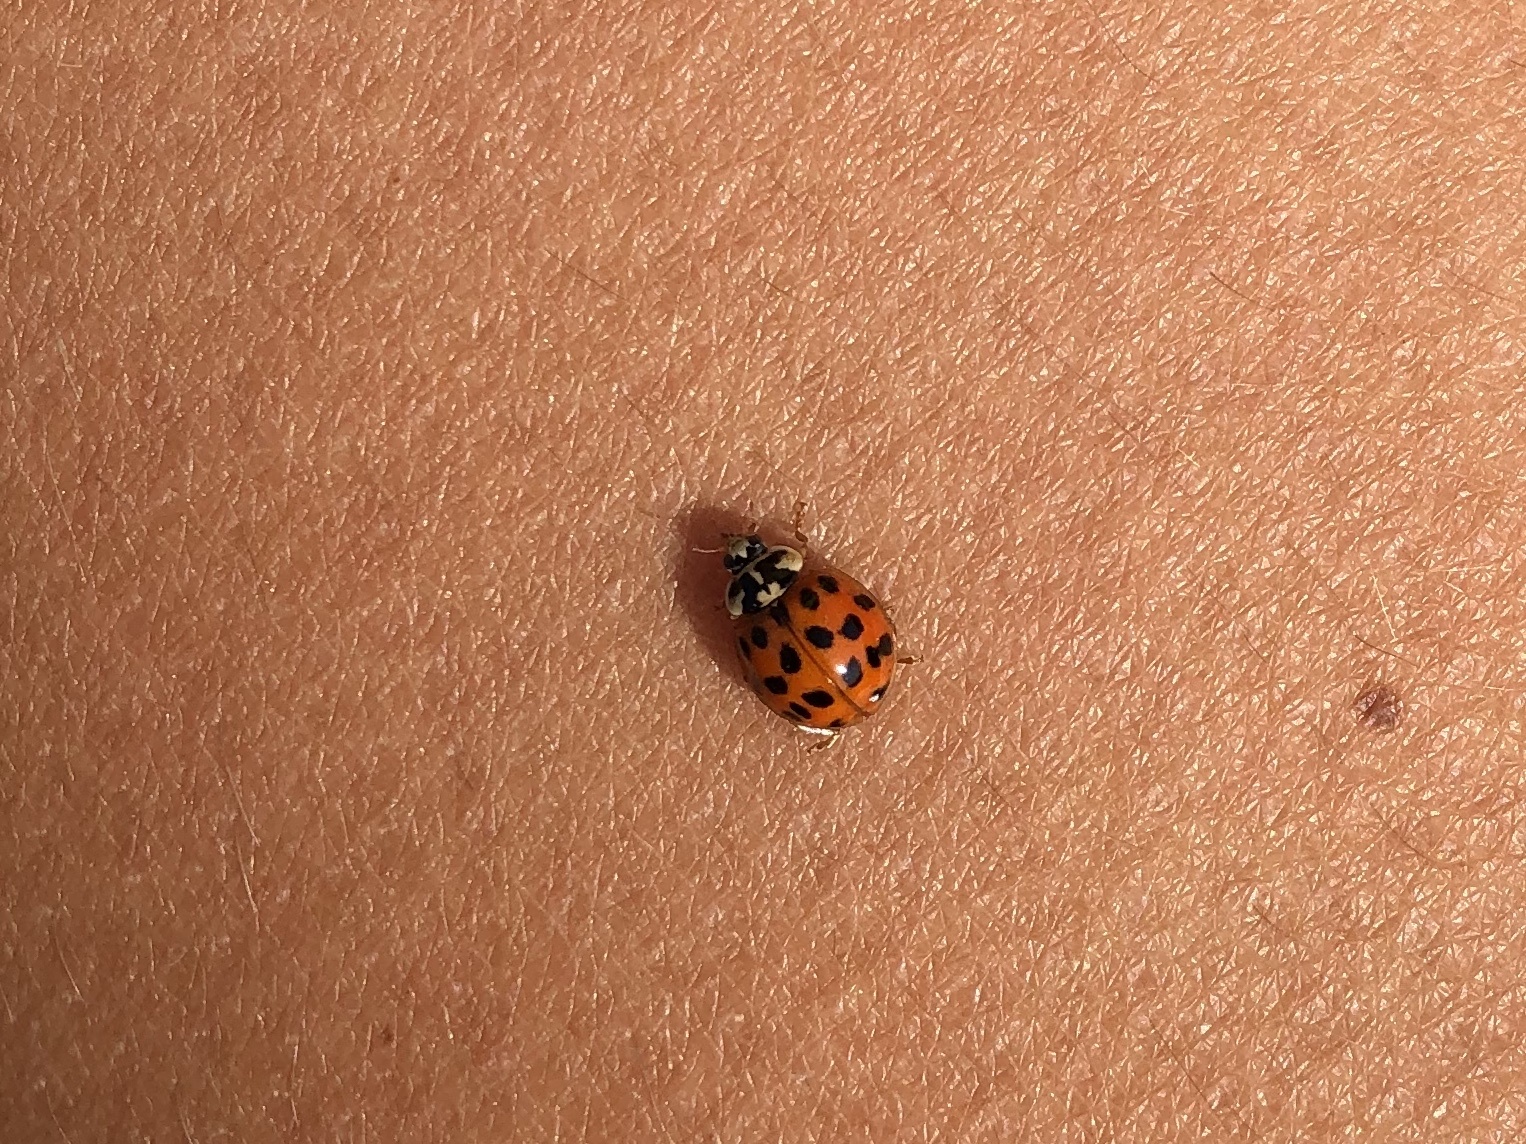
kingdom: Animalia
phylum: Arthropoda
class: Insecta
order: Coleoptera
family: Coccinellidae
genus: Harmonia
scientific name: Harmonia axyridis
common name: Harlequin ladybird
